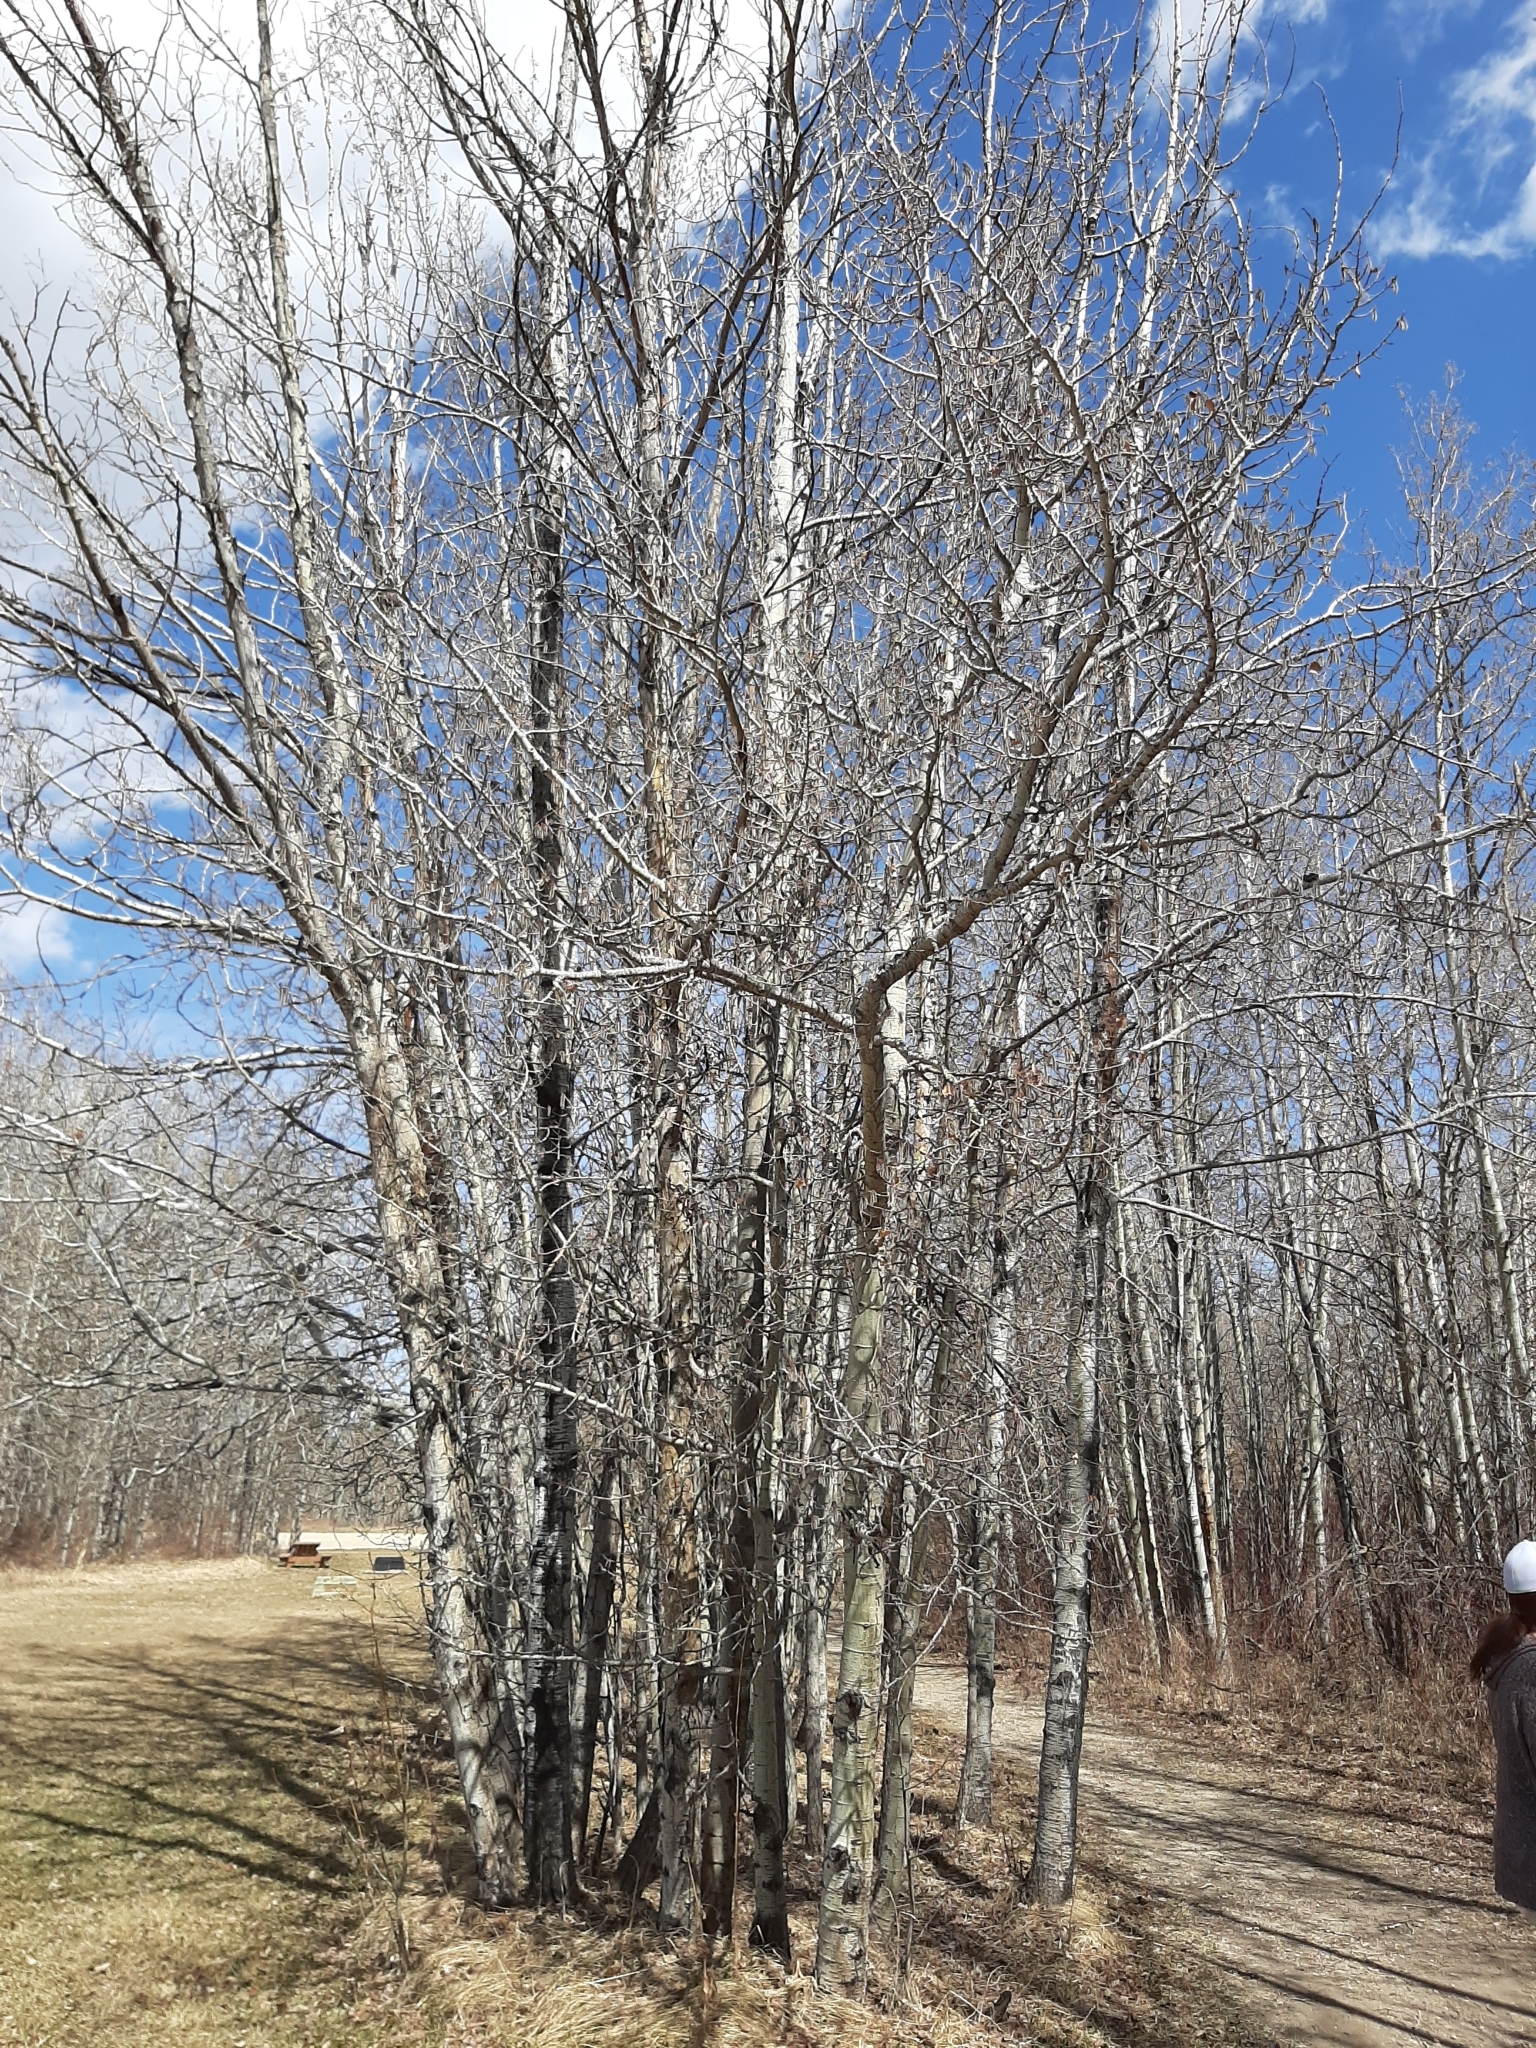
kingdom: Plantae
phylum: Tracheophyta
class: Magnoliopsida
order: Malpighiales
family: Salicaceae
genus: Populus
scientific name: Populus tremuloides
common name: Quaking aspen
